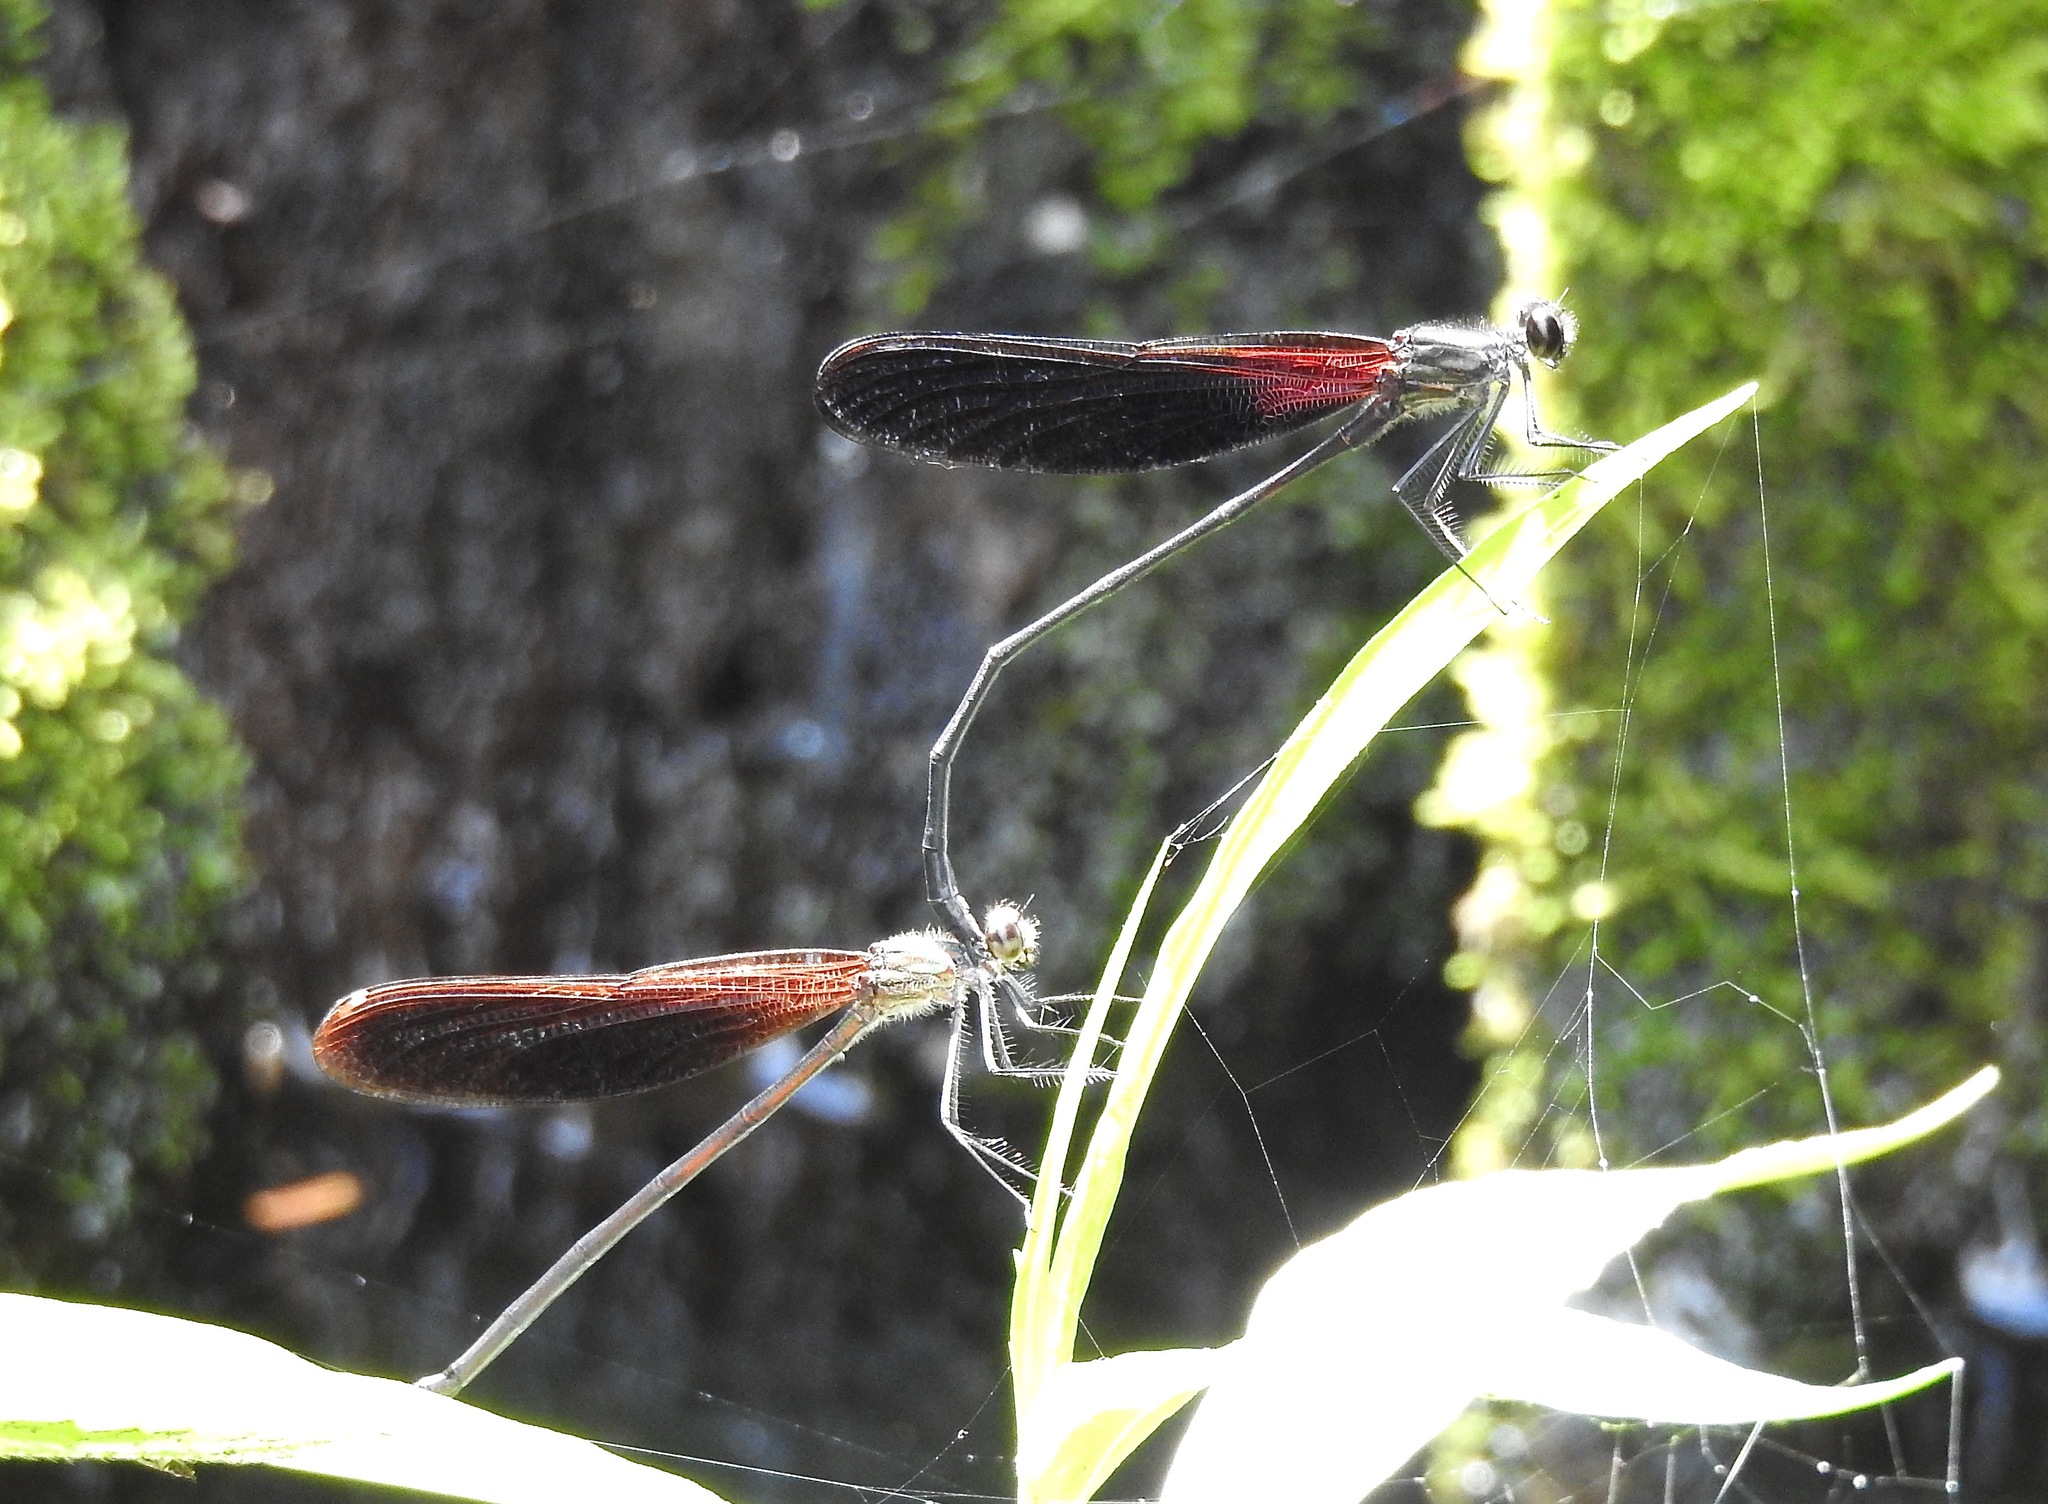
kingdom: Animalia
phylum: Arthropoda
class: Insecta
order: Odonata
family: Calopterygidae
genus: Hetaerina
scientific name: Hetaerina titia
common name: Smoky rubyspot
